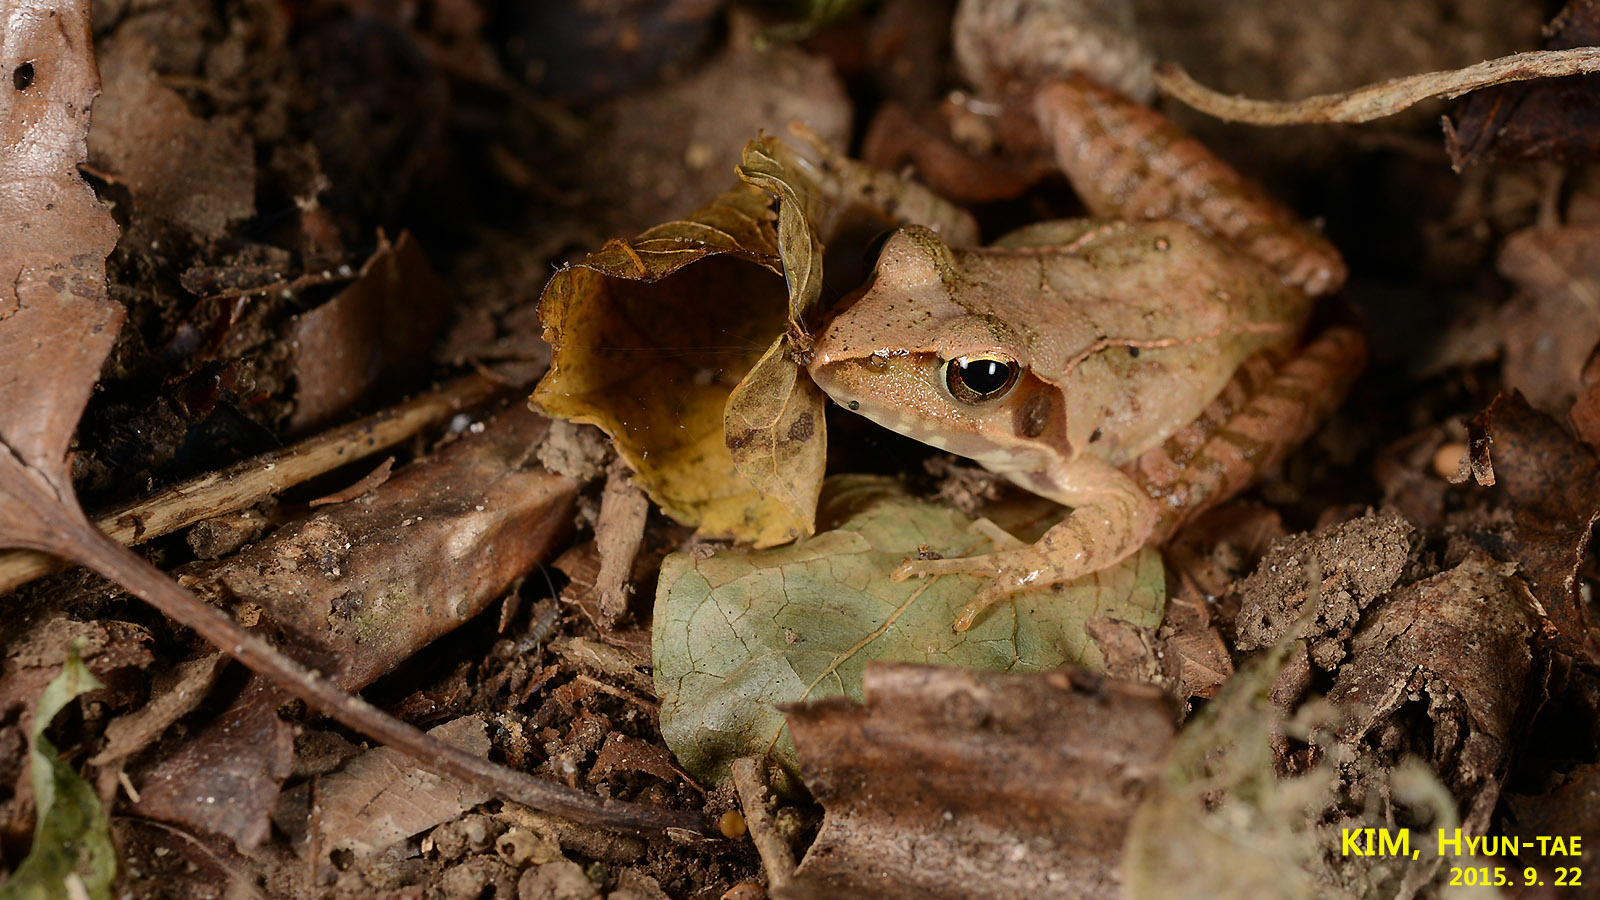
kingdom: Animalia
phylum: Chordata
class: Amphibia
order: Anura
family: Ranidae
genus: Rana
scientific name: Rana uenoi
